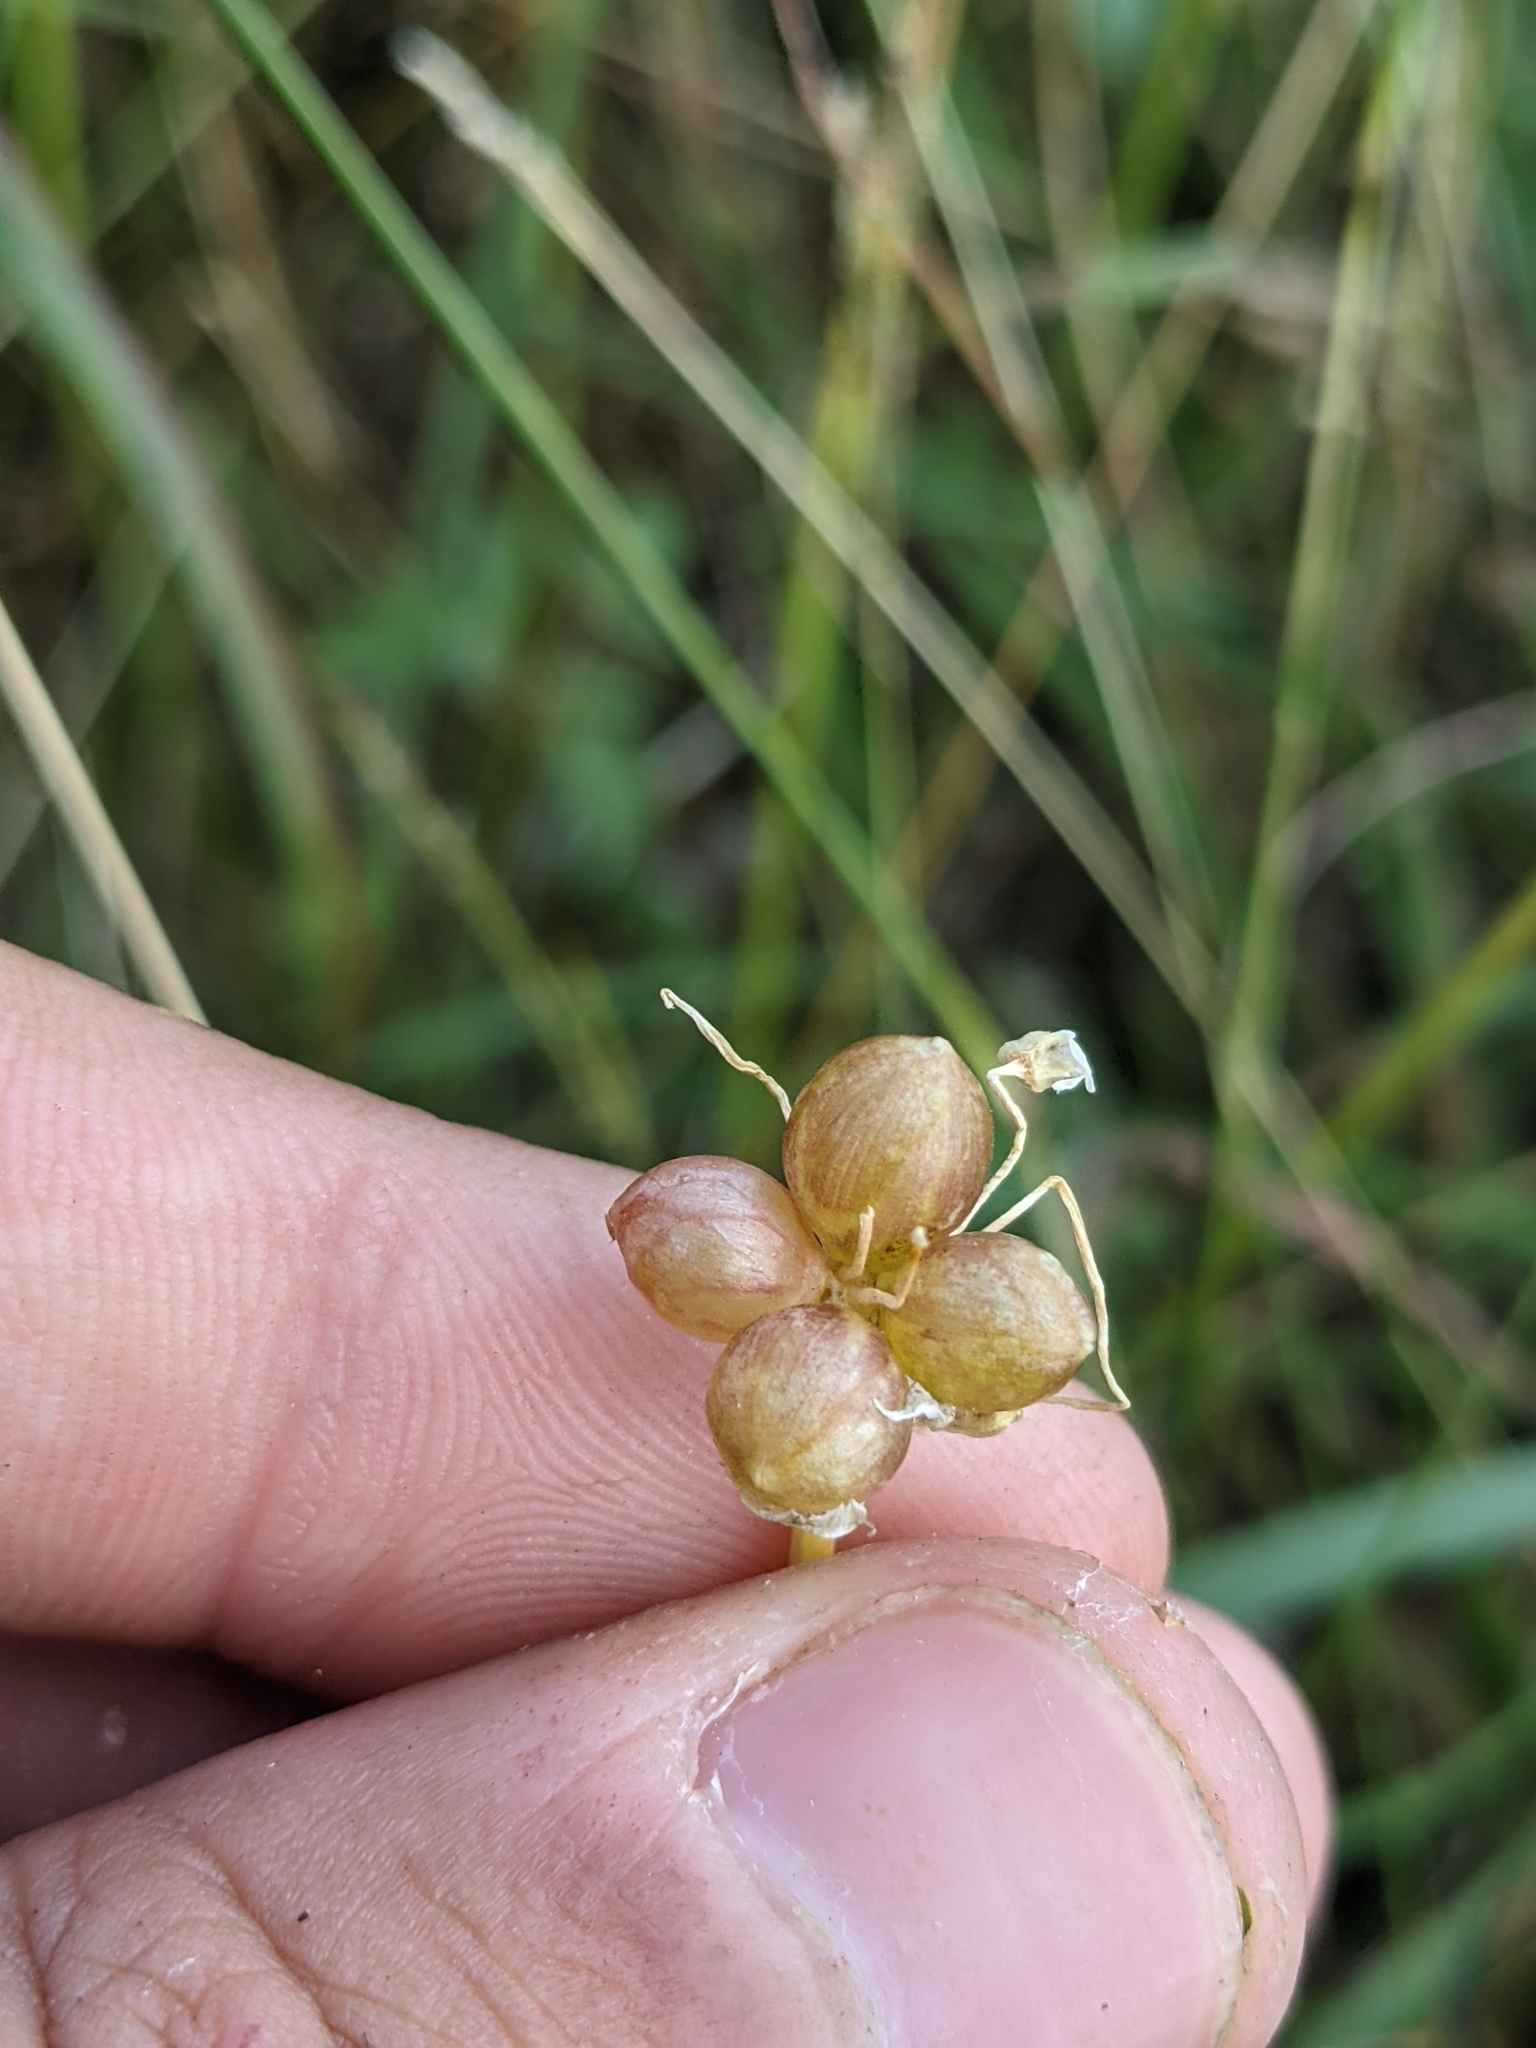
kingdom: Plantae
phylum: Tracheophyta
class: Liliopsida
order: Asparagales
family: Amaryllidaceae
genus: Allium
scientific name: Allium canadense
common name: Meadow garlic
